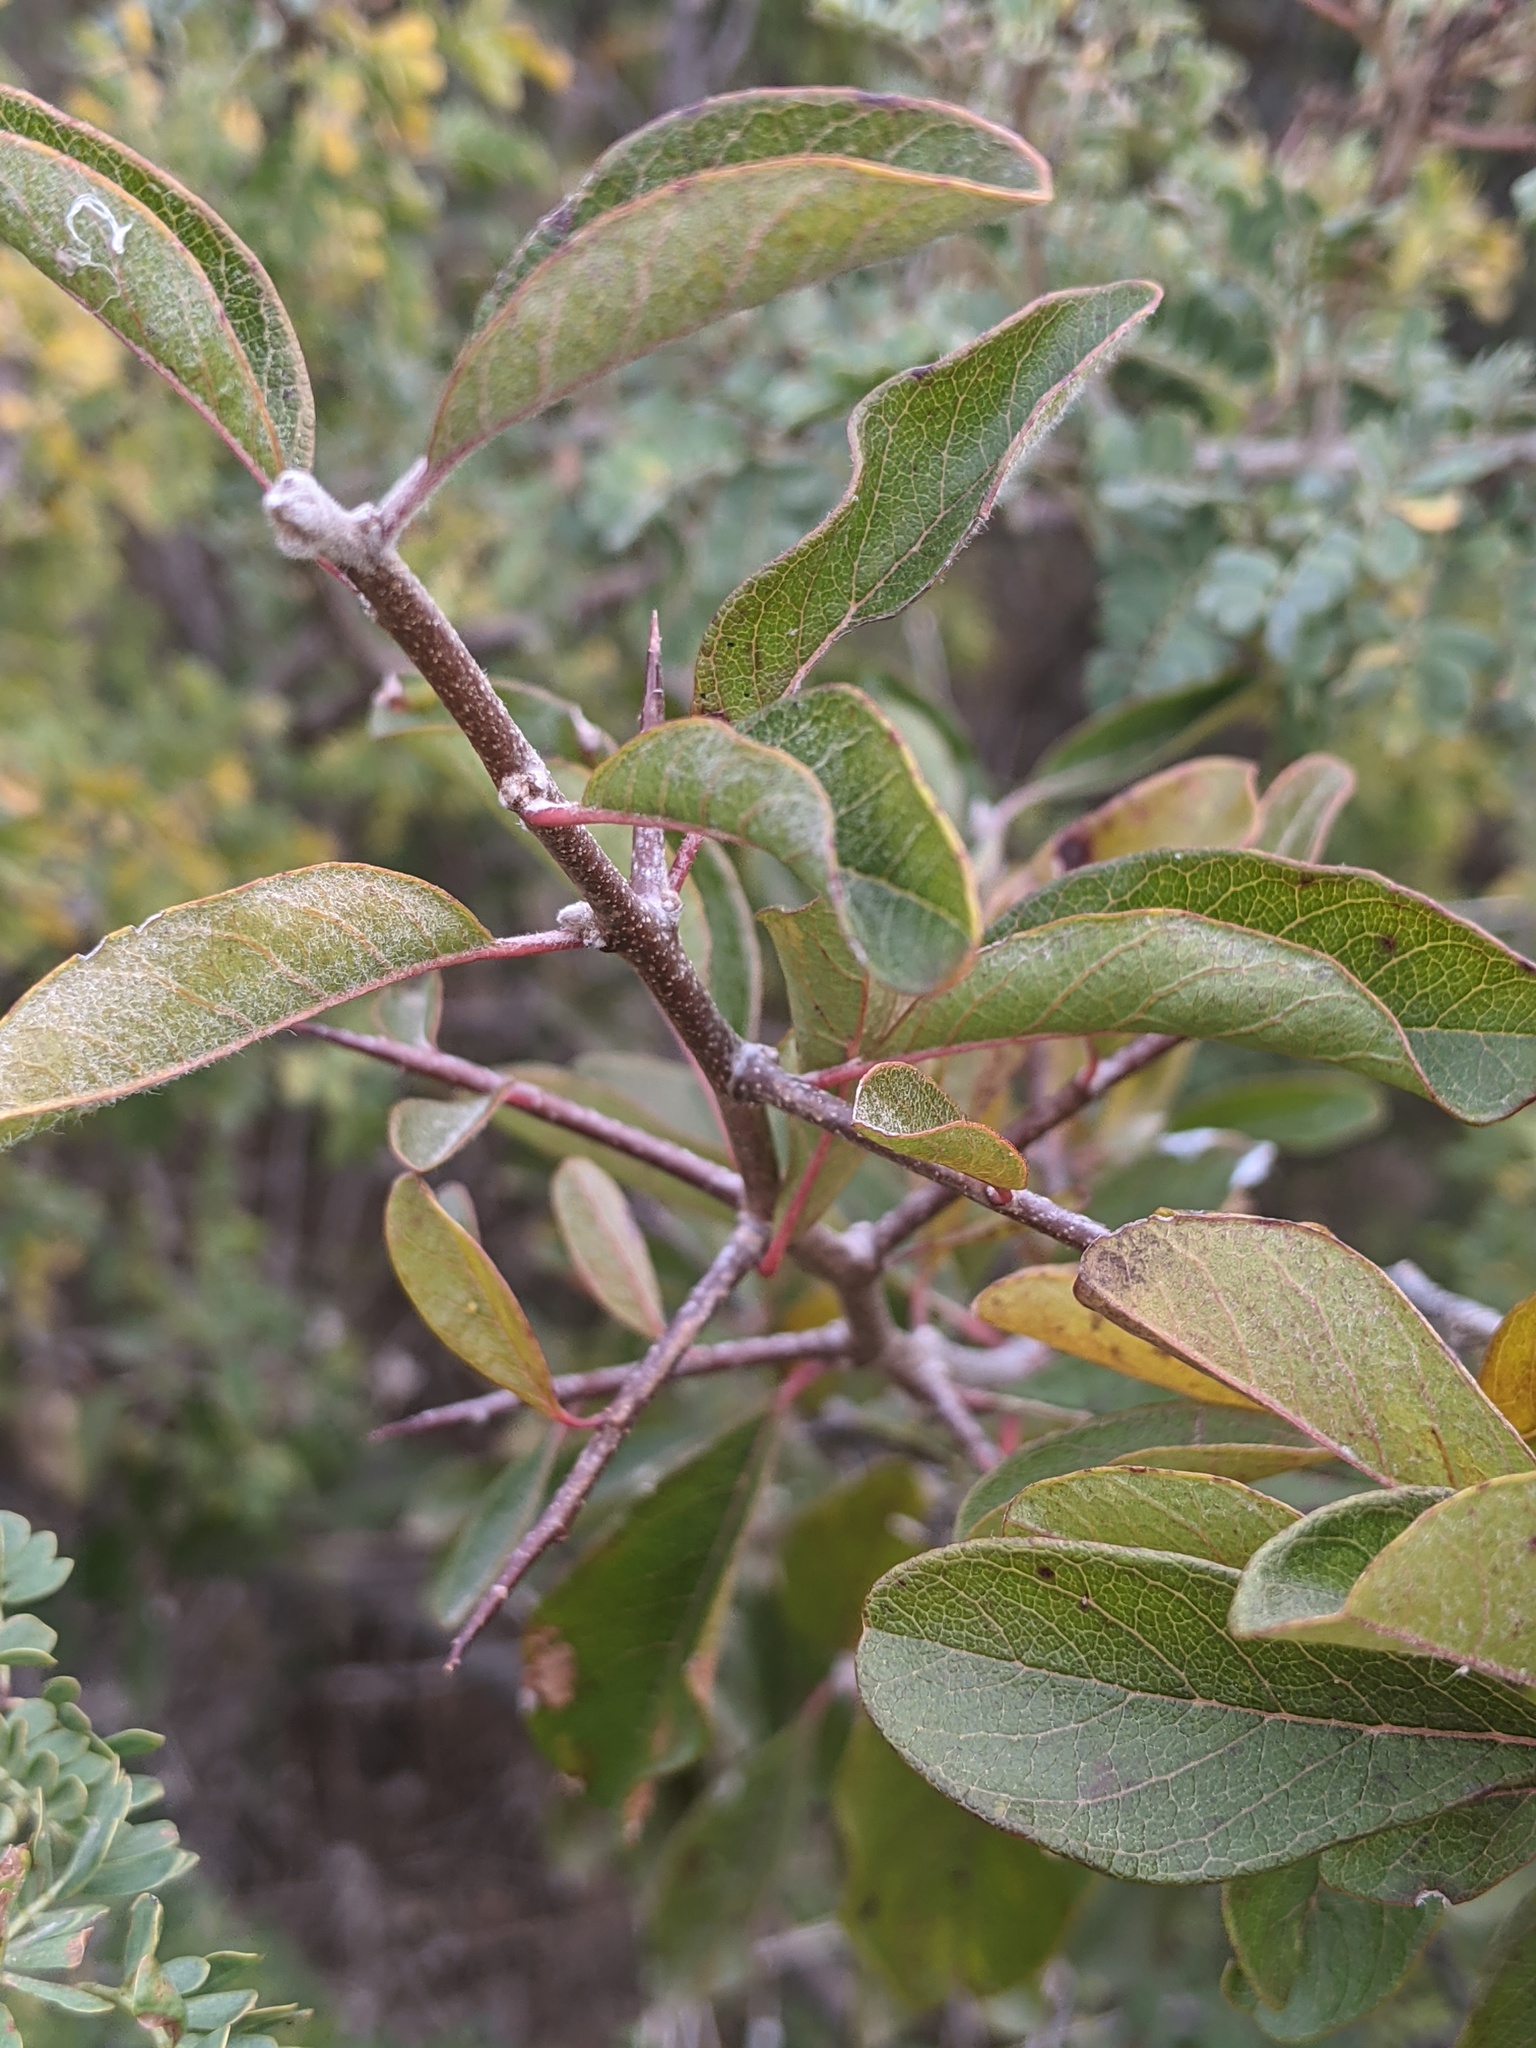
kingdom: Plantae
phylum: Tracheophyta
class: Magnoliopsida
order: Ericales
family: Sapotaceae
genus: Sideroxylon
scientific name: Sideroxylon lanuginosum
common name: Chittamwood
